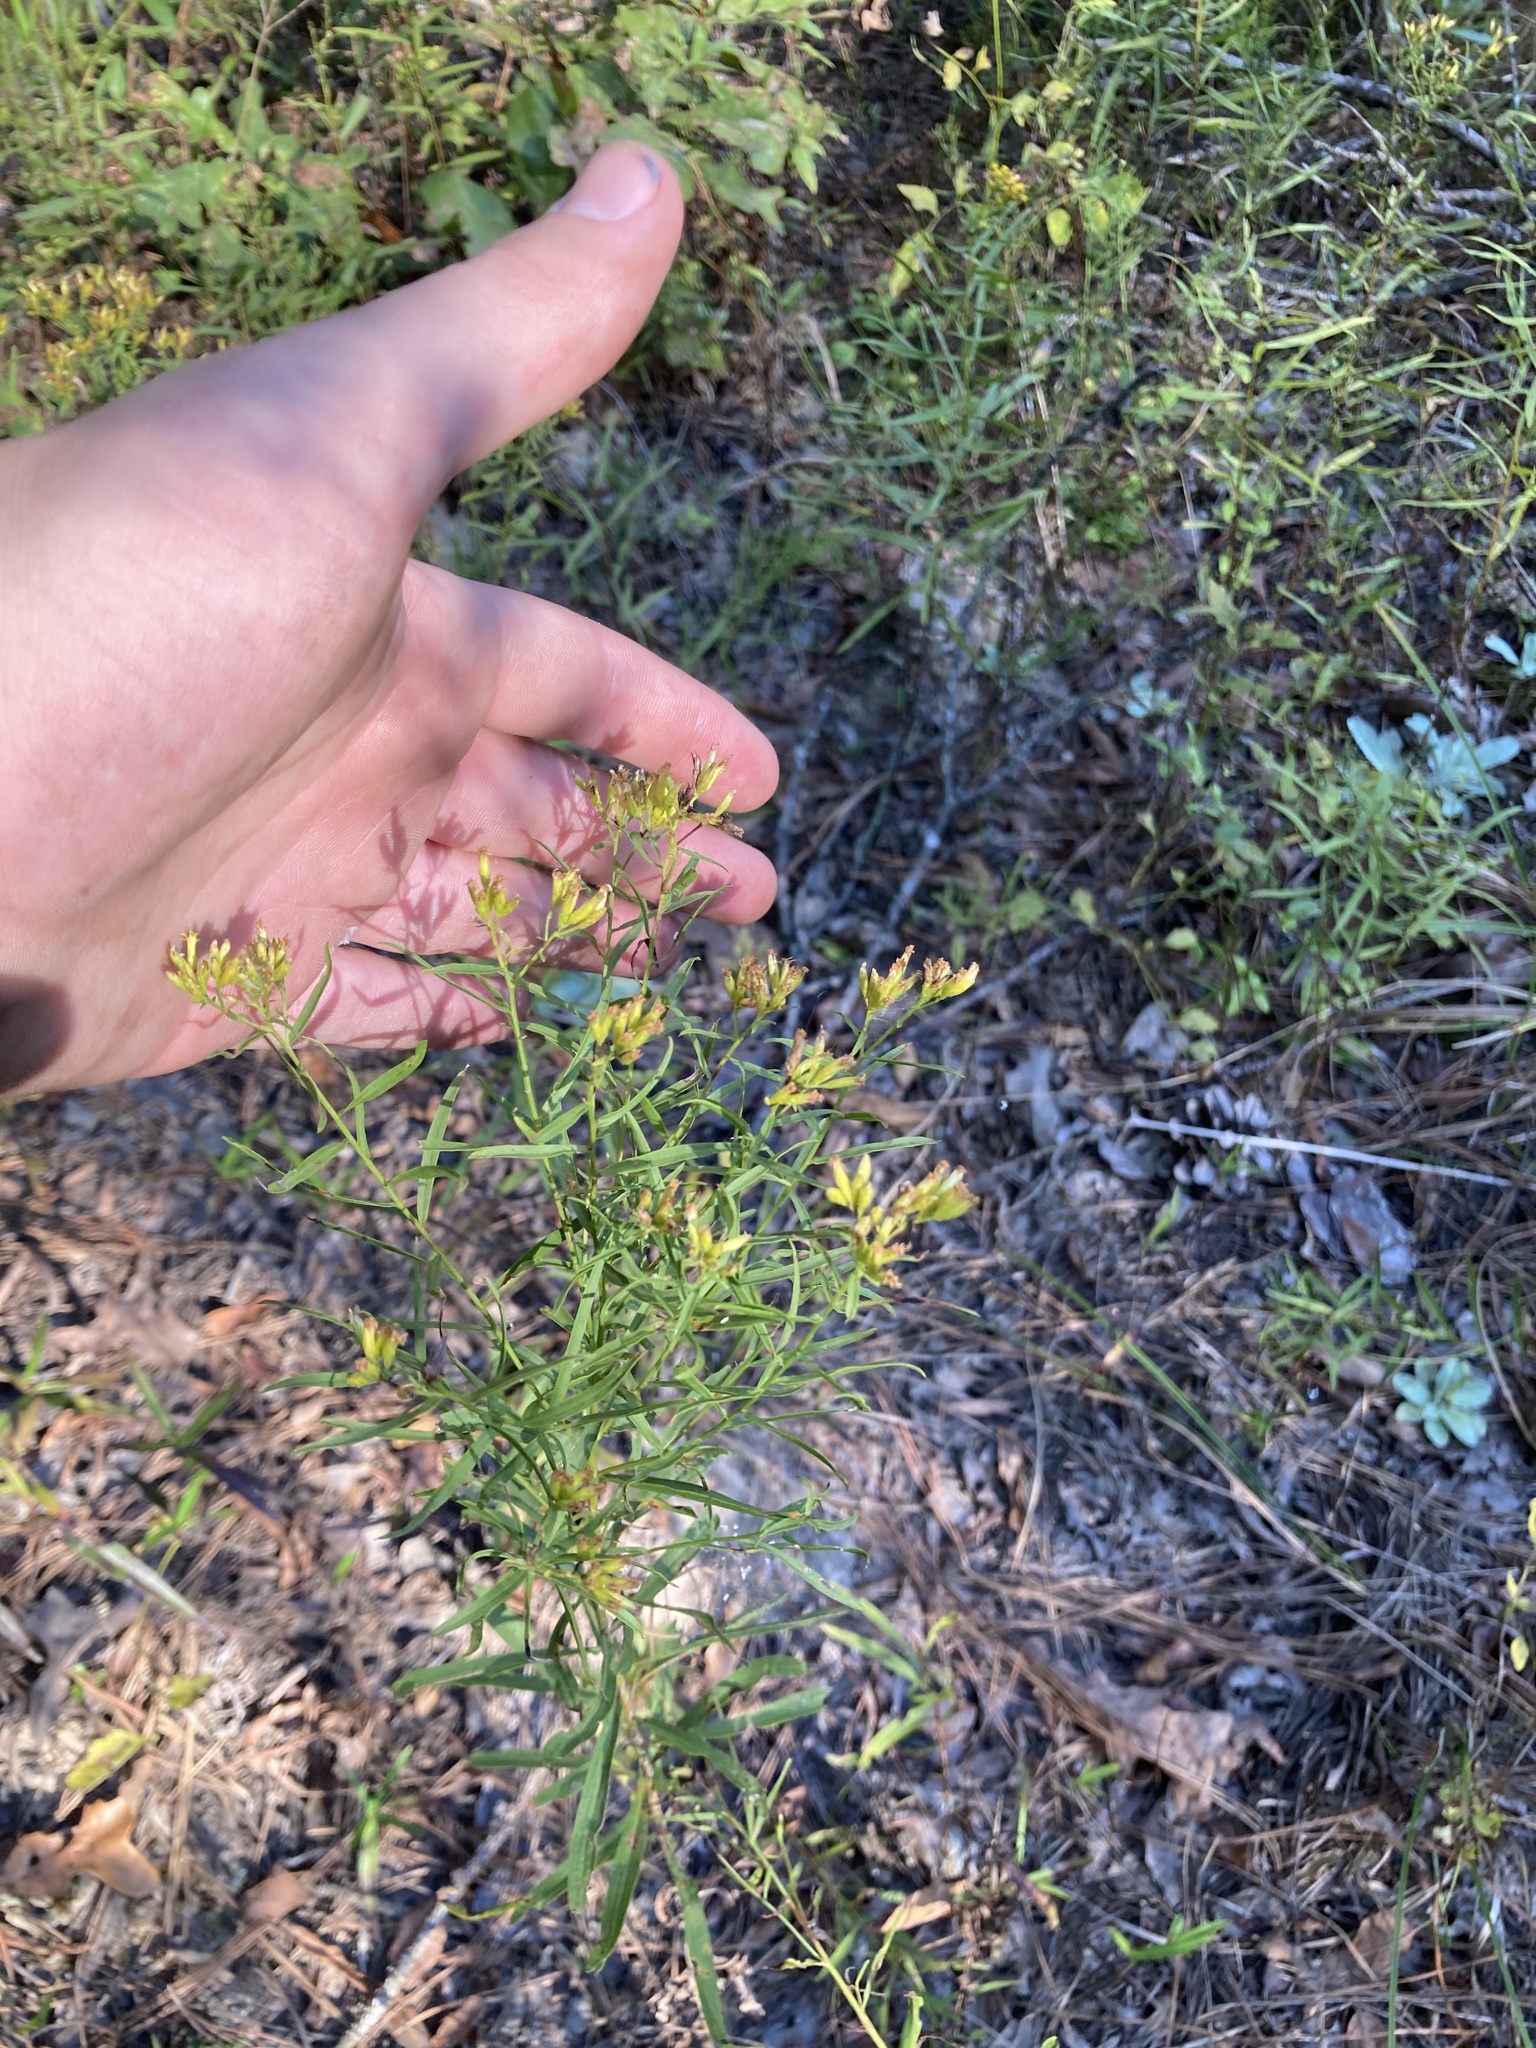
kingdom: Plantae
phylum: Tracheophyta
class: Magnoliopsida
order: Asterales
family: Asteraceae
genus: Euthamia
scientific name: Euthamia leptocephala
